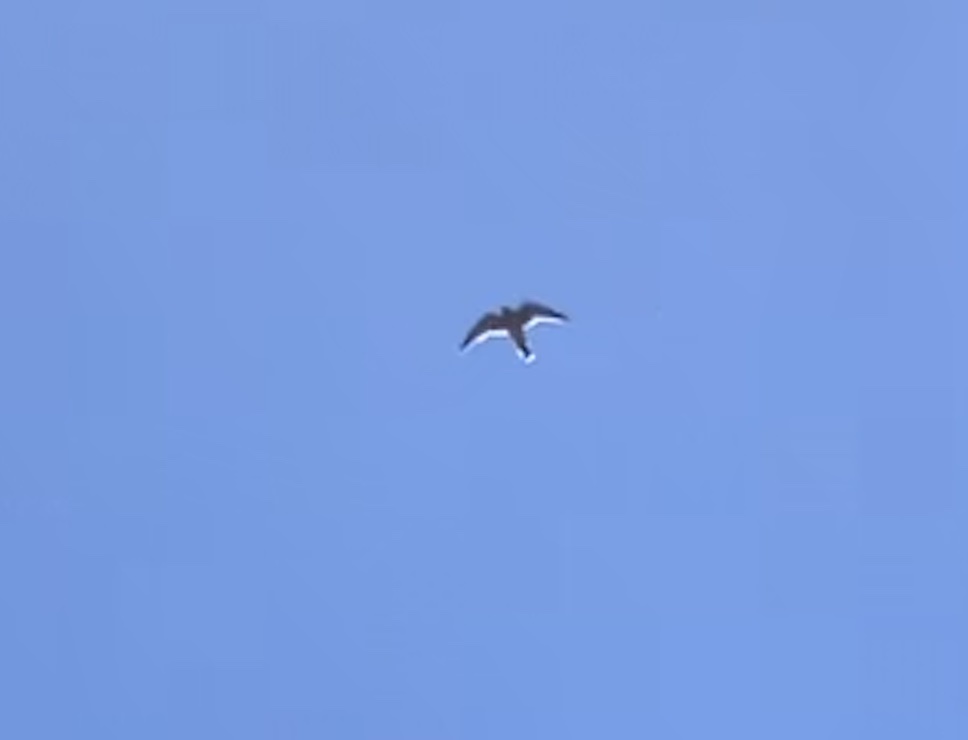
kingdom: Animalia
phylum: Chordata
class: Aves
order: Falconiformes
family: Falconidae
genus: Falco
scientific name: Falco tinnunculus
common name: Common kestrel
